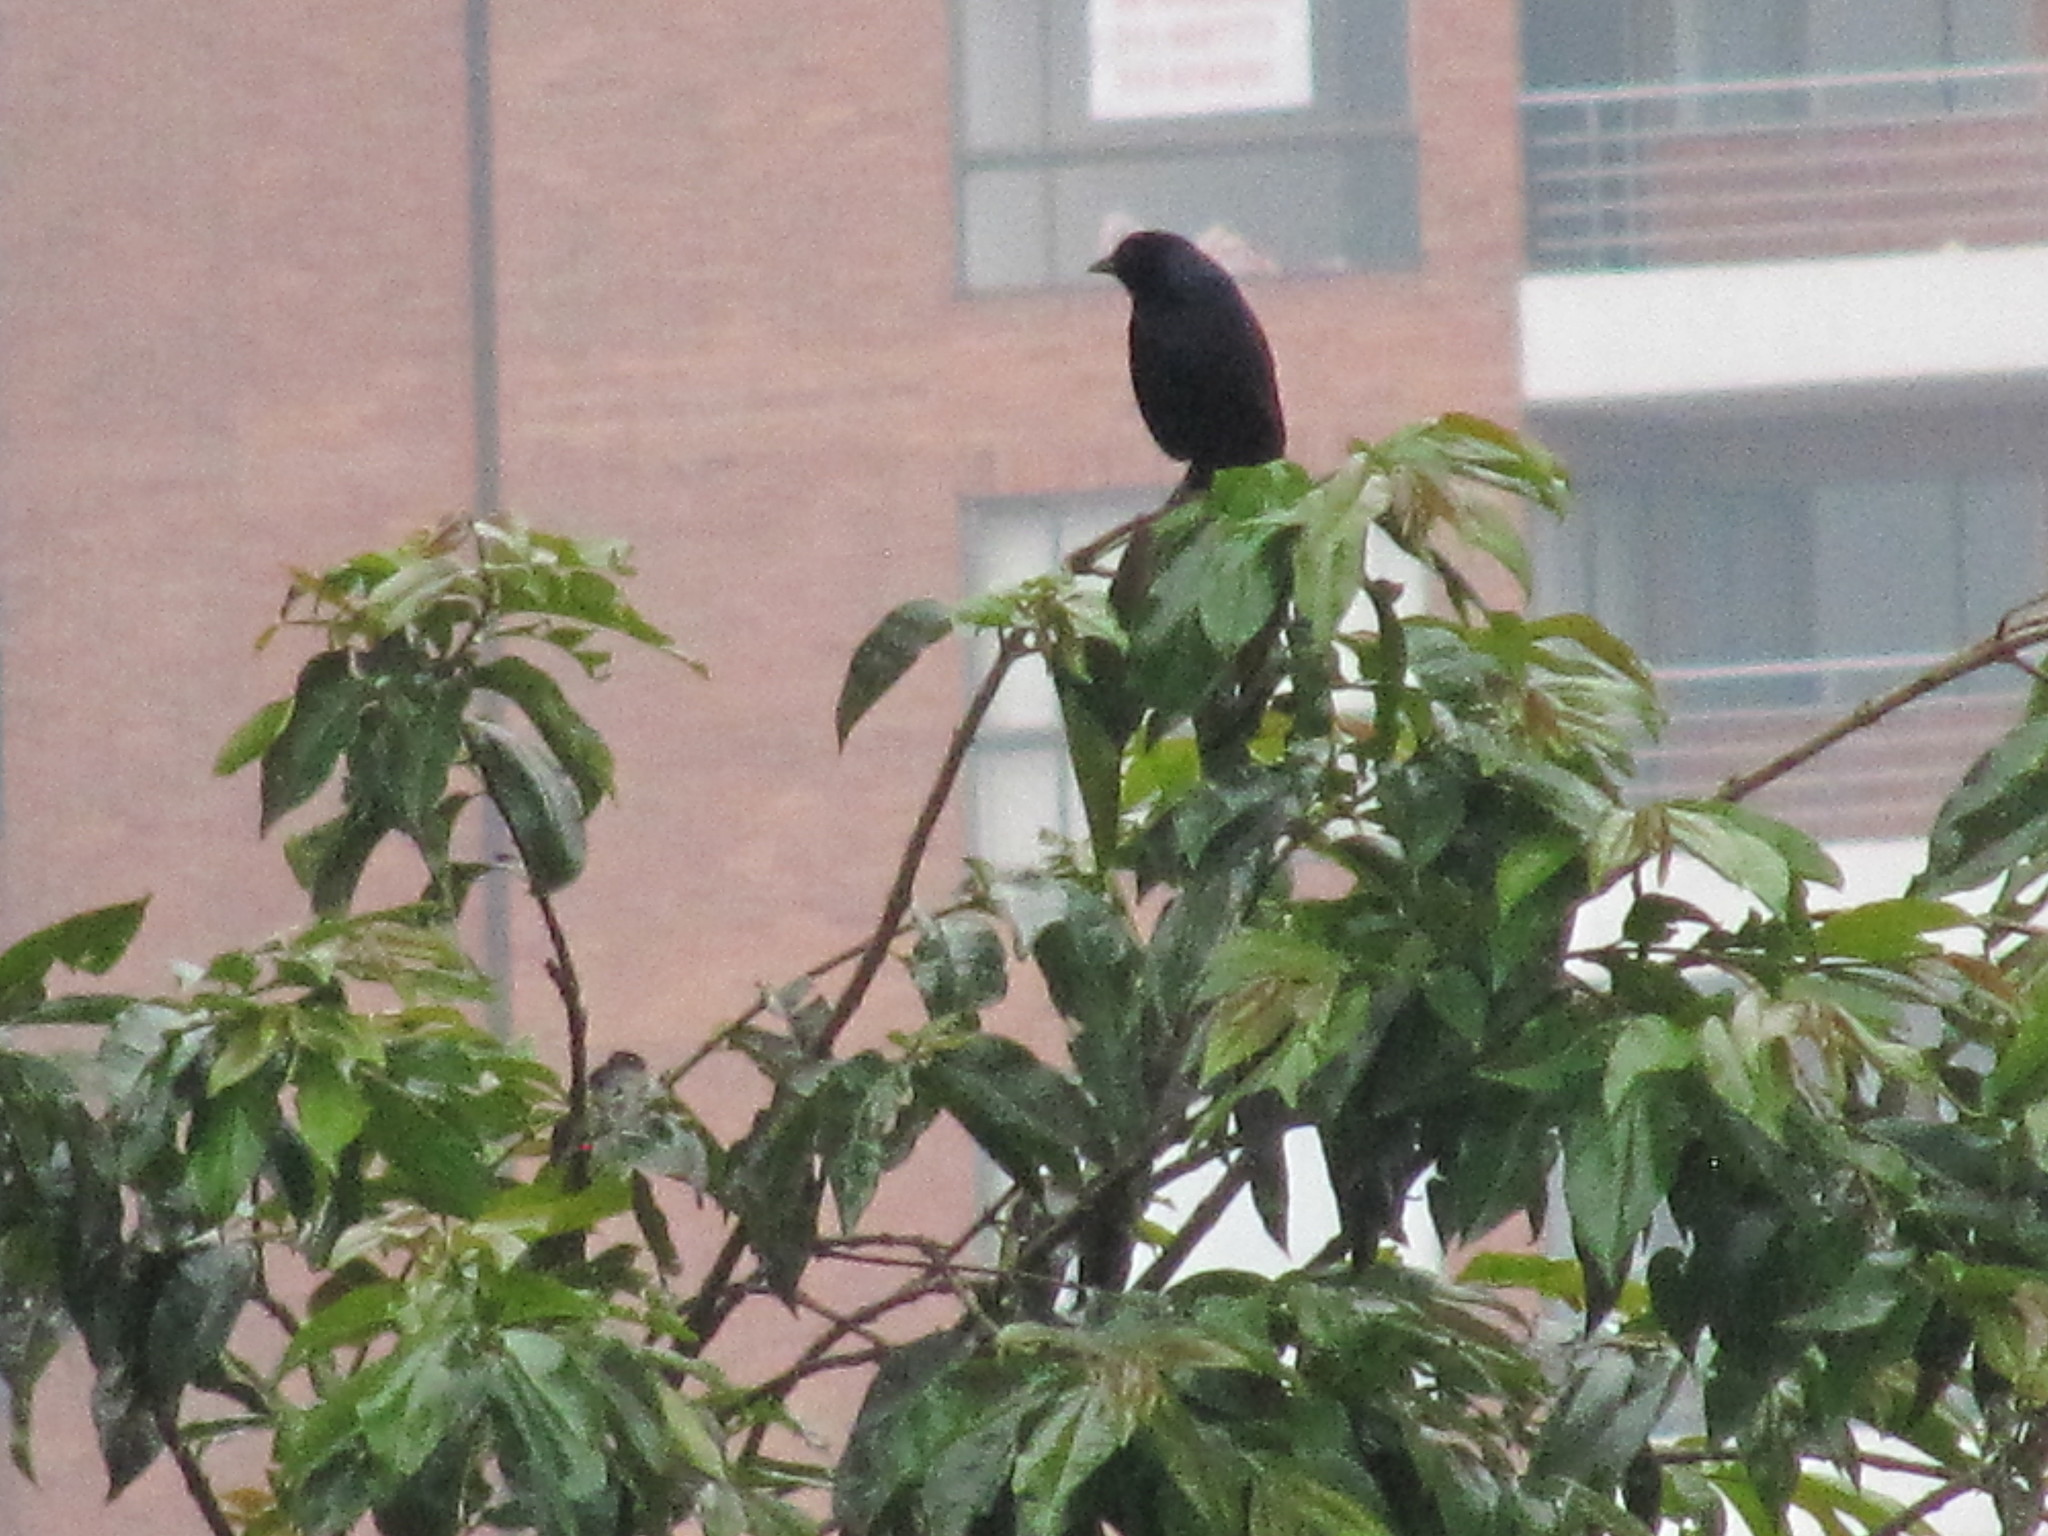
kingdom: Animalia
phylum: Chordata
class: Aves
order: Passeriformes
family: Icteridae
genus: Molothrus
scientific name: Molothrus bonariensis
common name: Shiny cowbird
